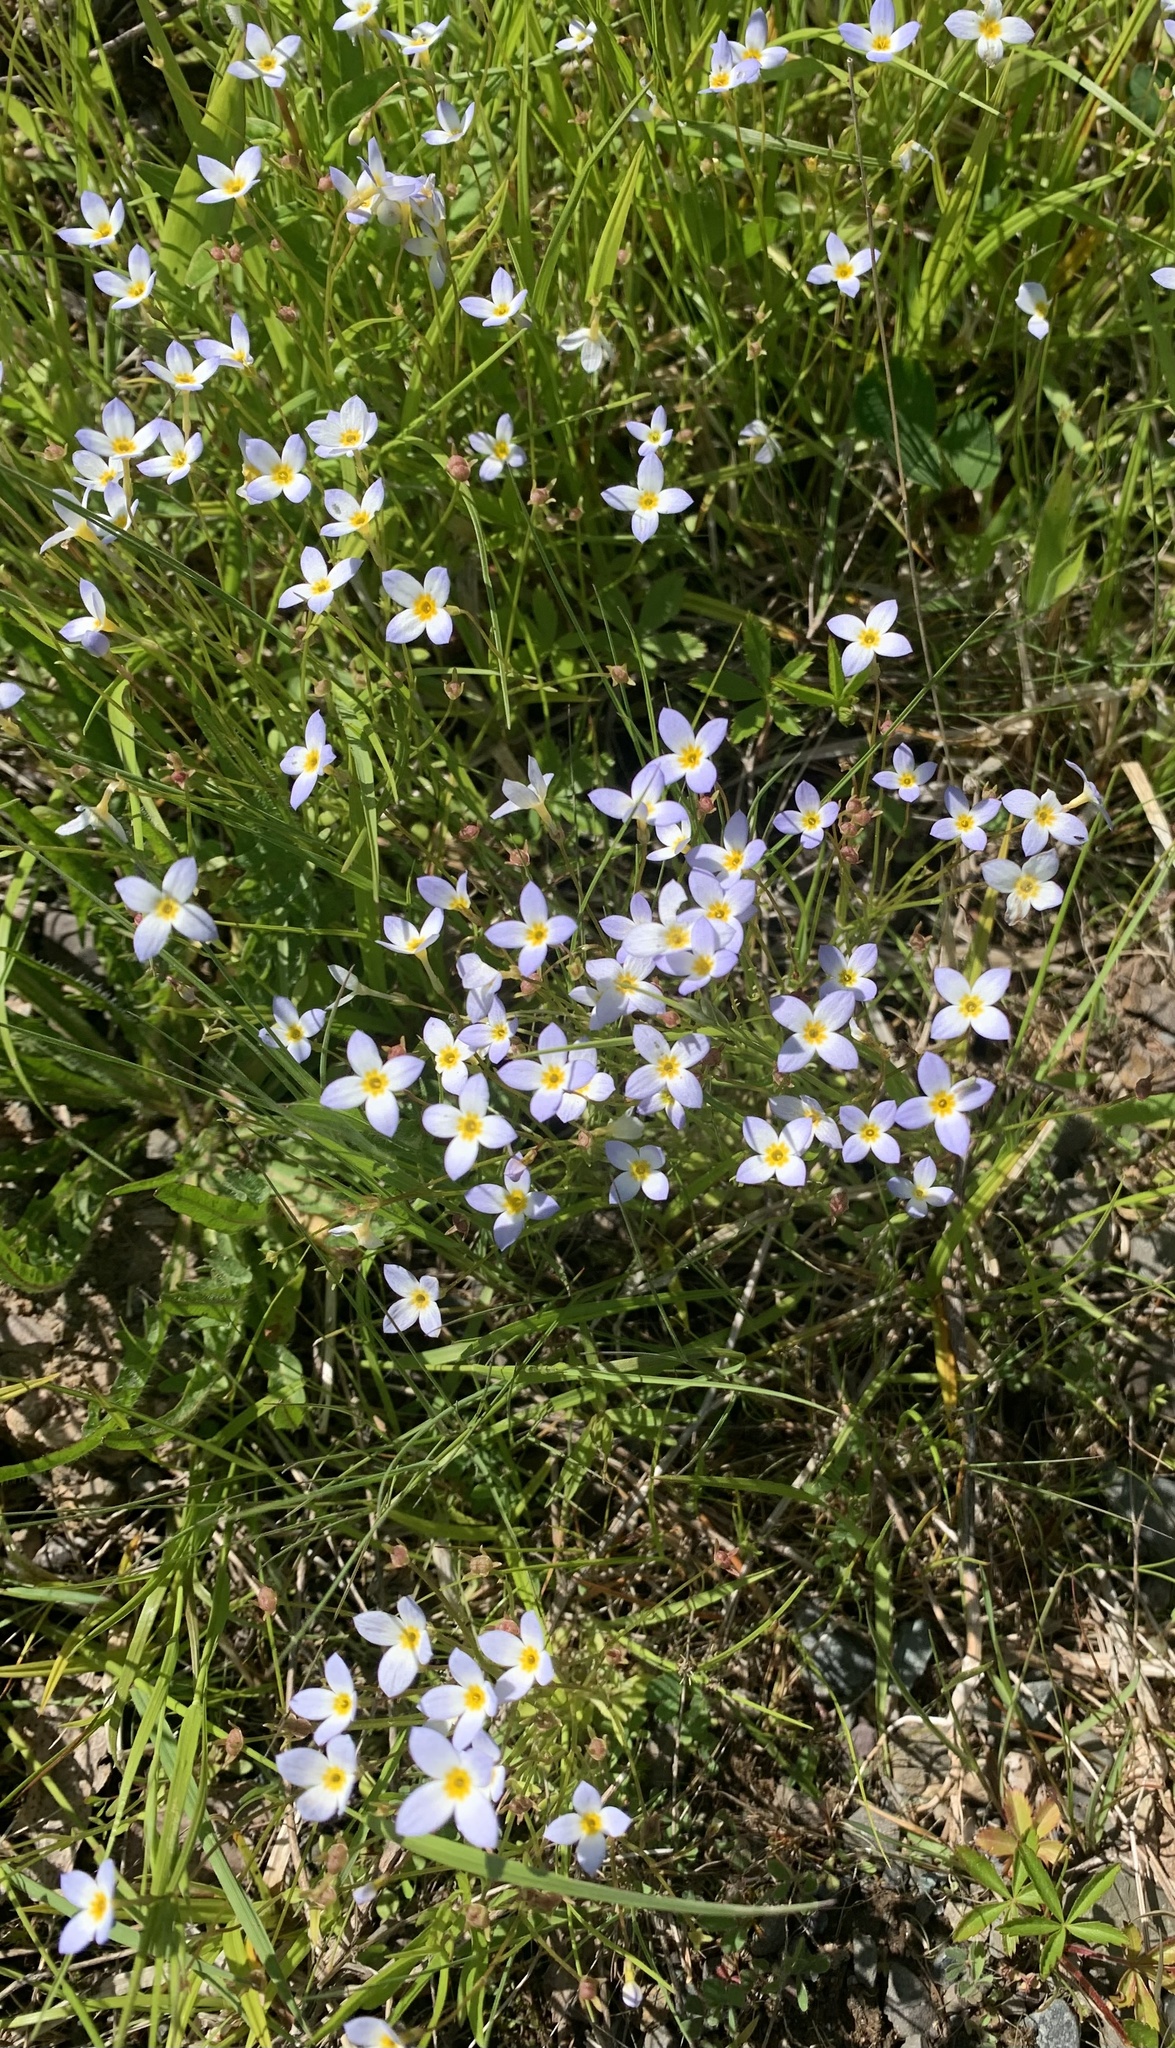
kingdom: Plantae
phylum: Tracheophyta
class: Magnoliopsida
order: Gentianales
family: Rubiaceae
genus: Houstonia
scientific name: Houstonia caerulea
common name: Bluets
